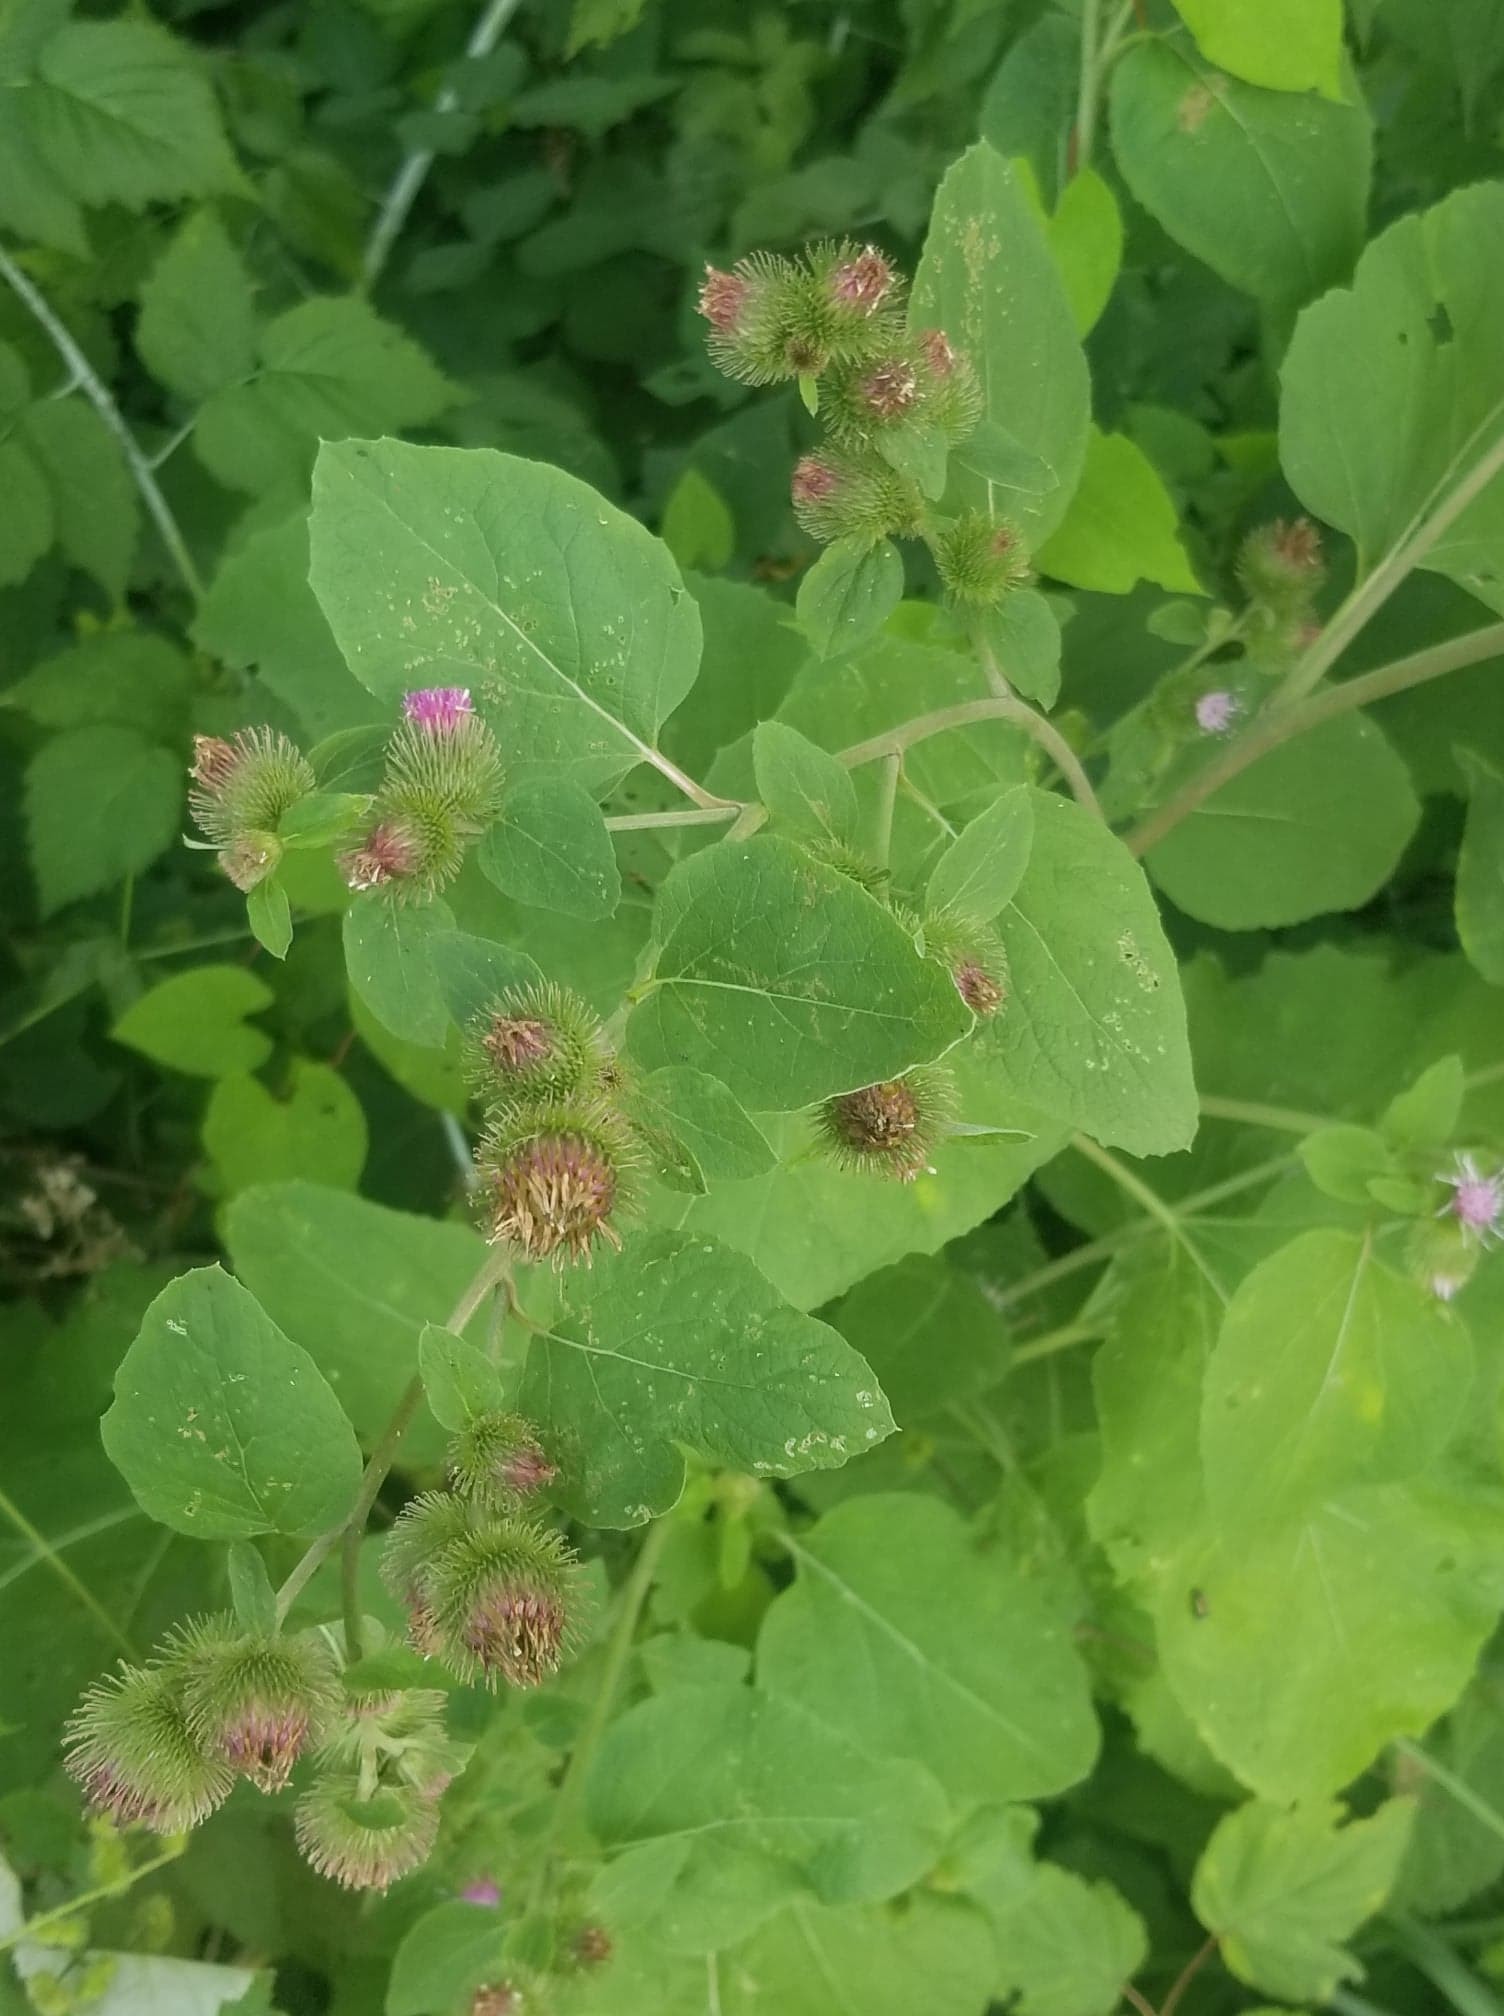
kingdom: Plantae
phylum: Tracheophyta
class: Magnoliopsida
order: Asterales
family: Asteraceae
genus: Arctium
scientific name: Arctium minus
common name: Lesser burdock
